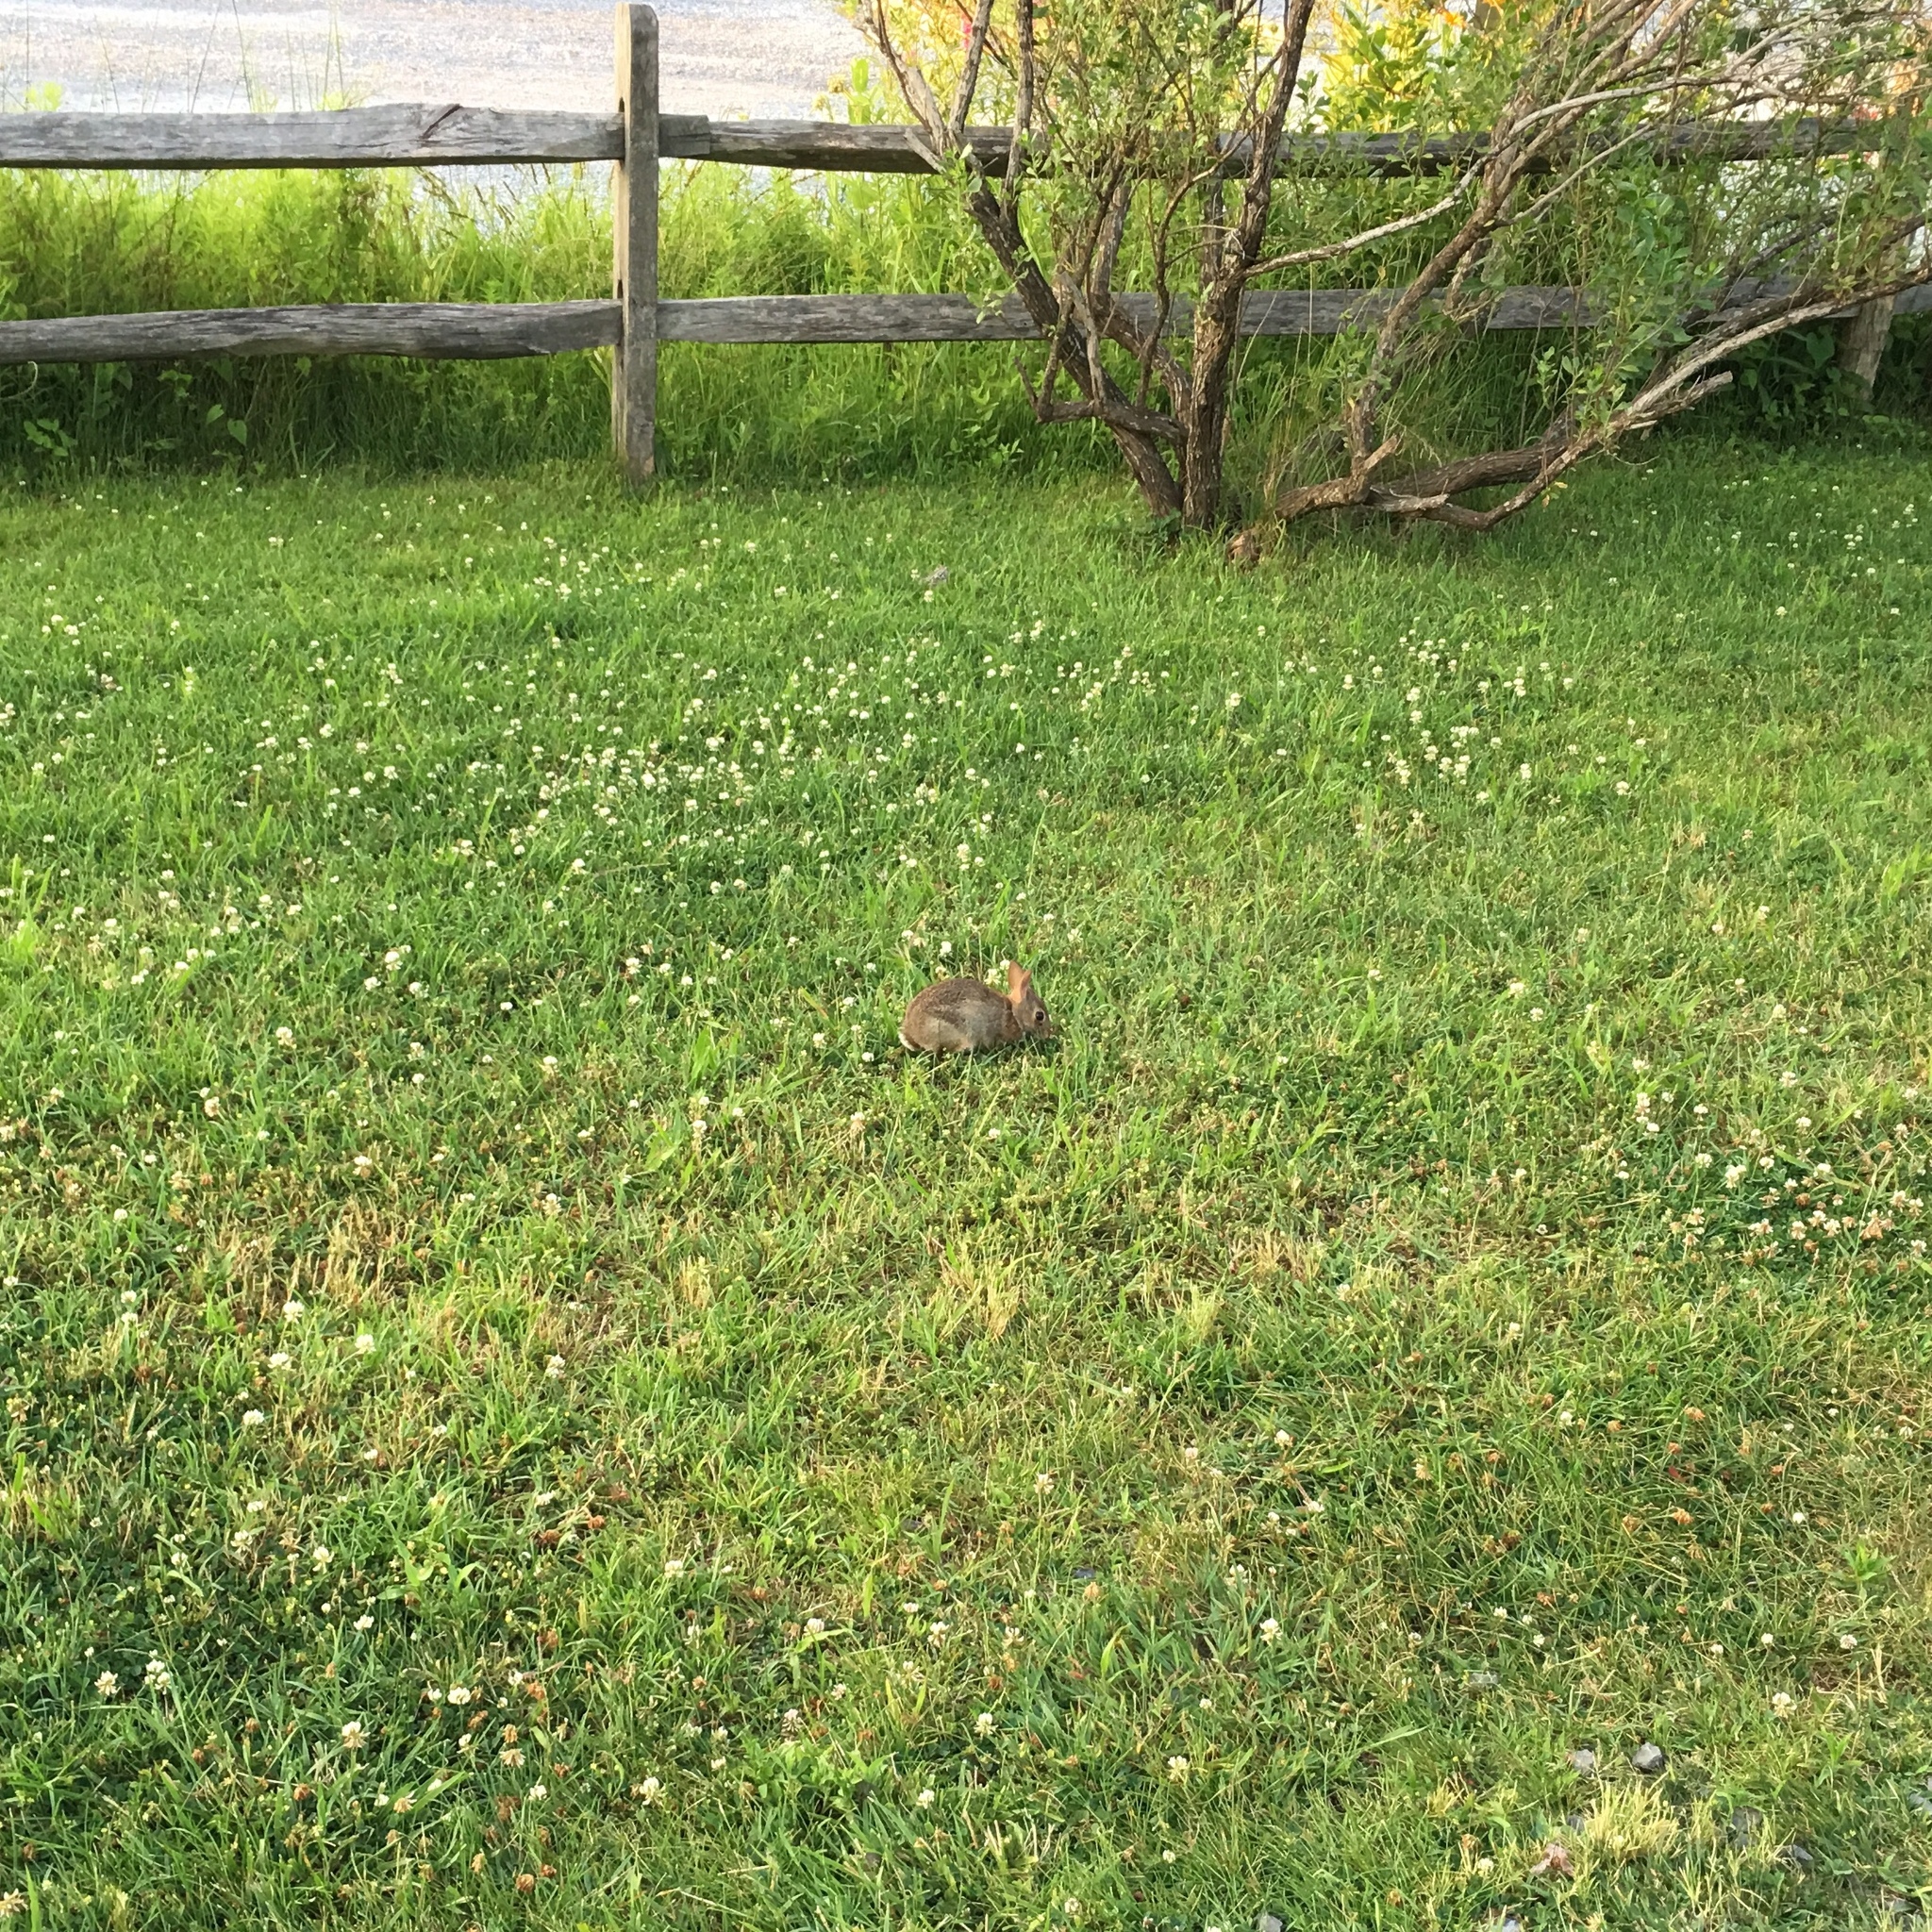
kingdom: Animalia
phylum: Chordata
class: Mammalia
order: Lagomorpha
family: Leporidae
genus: Sylvilagus
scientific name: Sylvilagus floridanus
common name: Eastern cottontail
